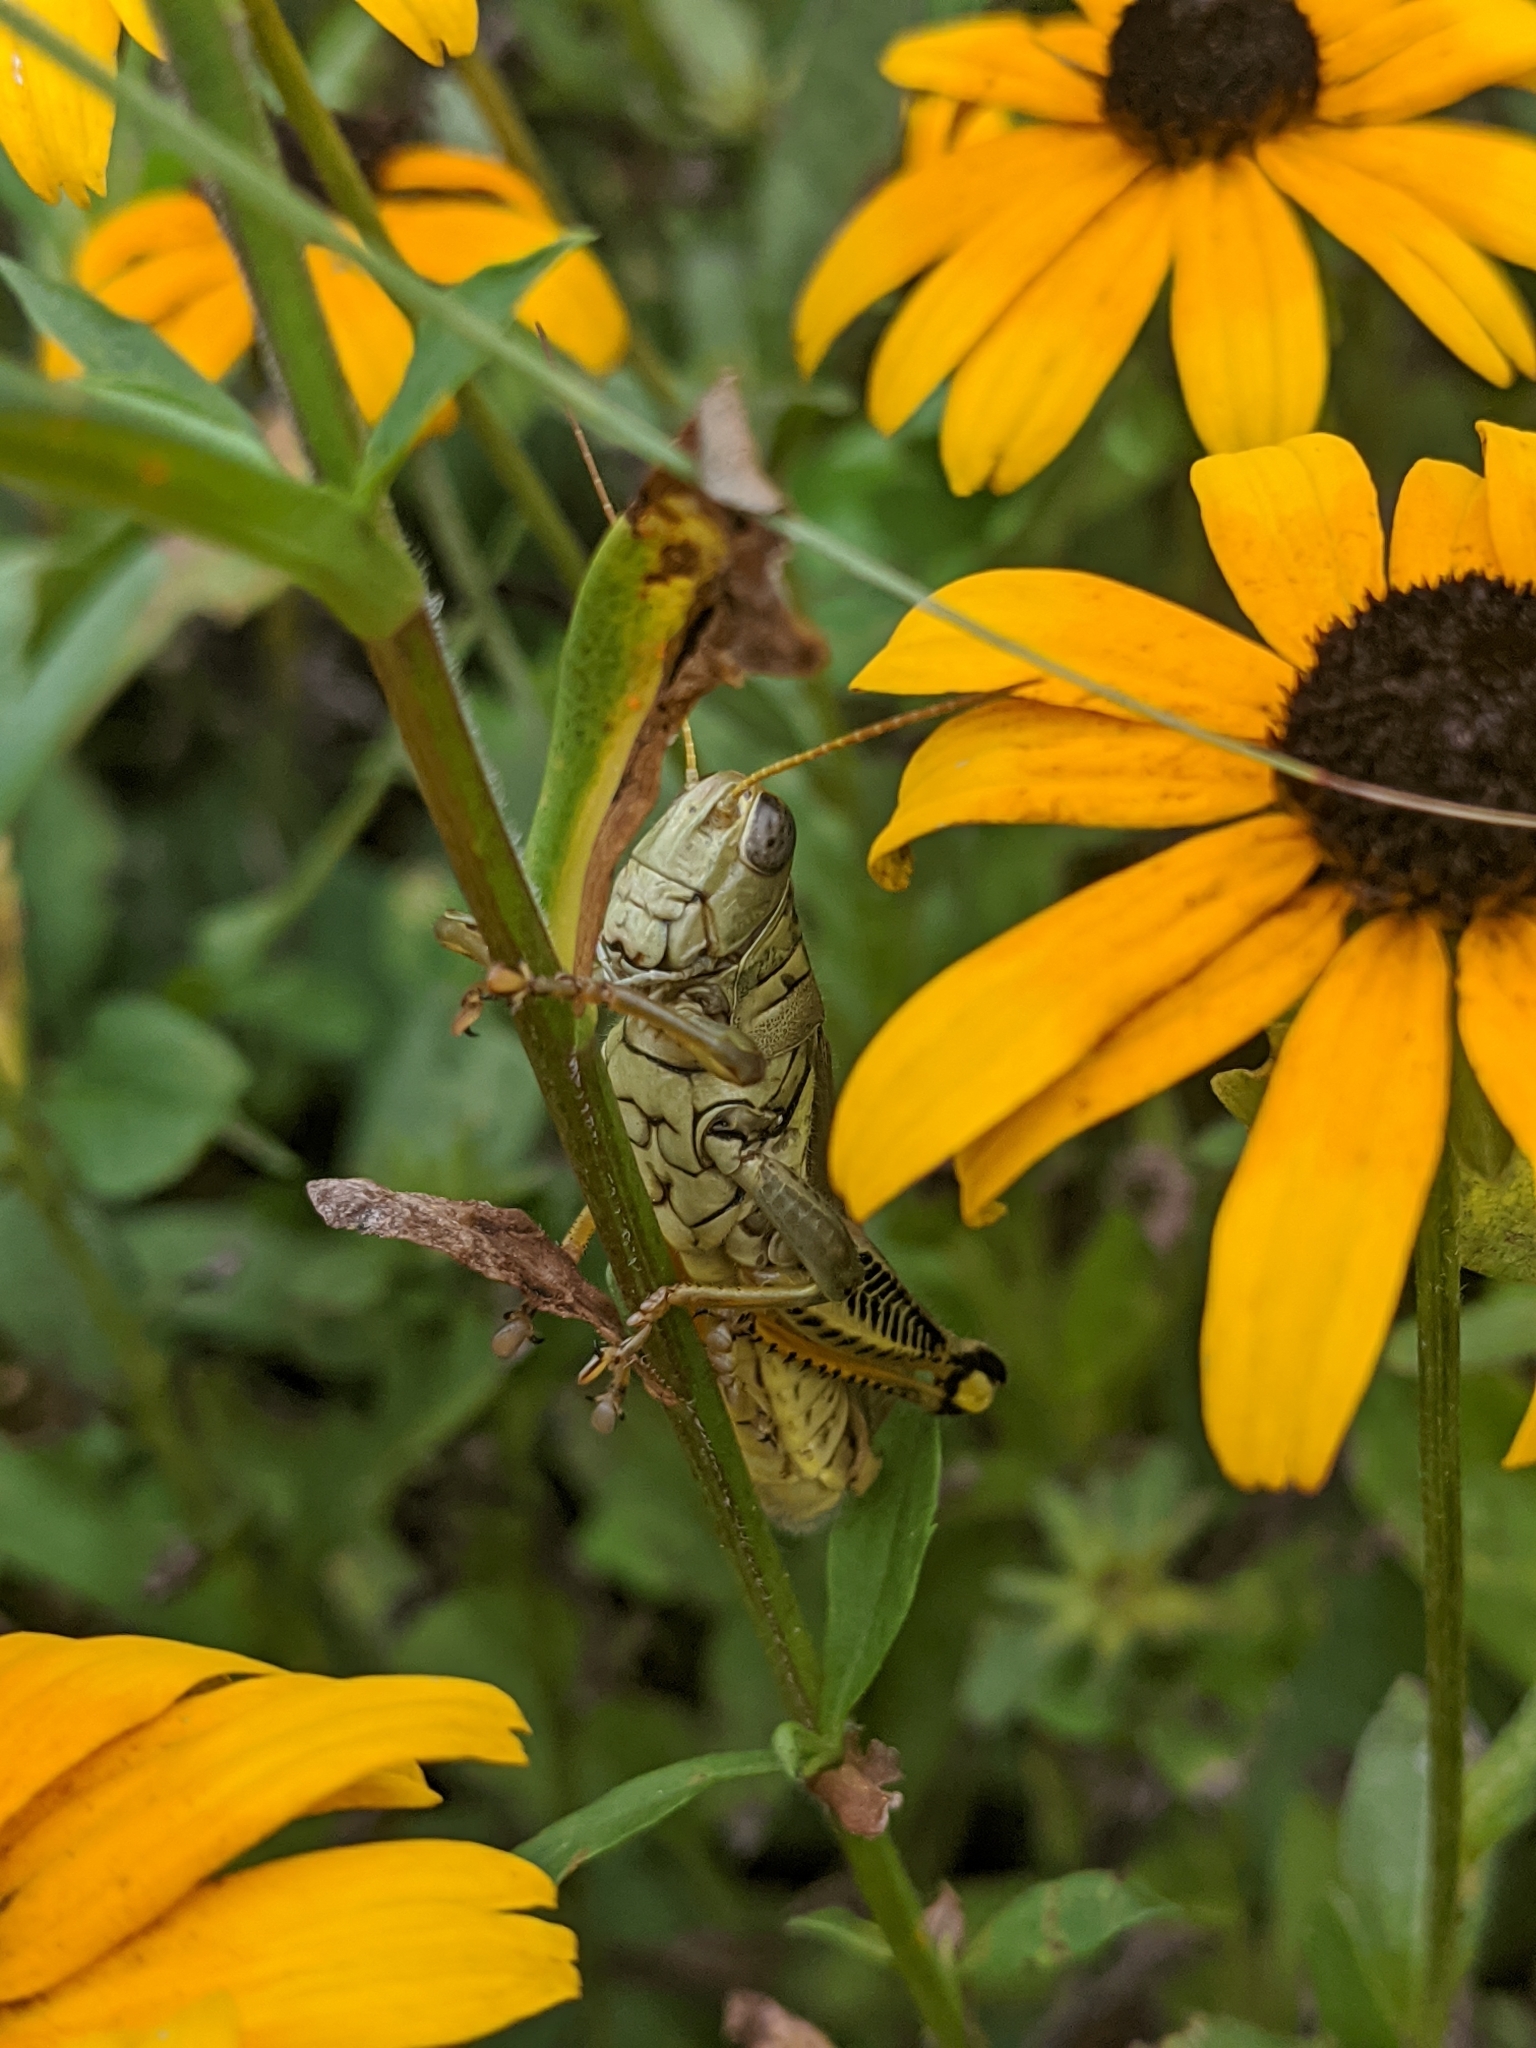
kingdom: Animalia
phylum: Arthropoda
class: Insecta
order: Orthoptera
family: Acrididae
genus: Melanoplus
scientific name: Melanoplus differentialis
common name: Differential grasshopper
